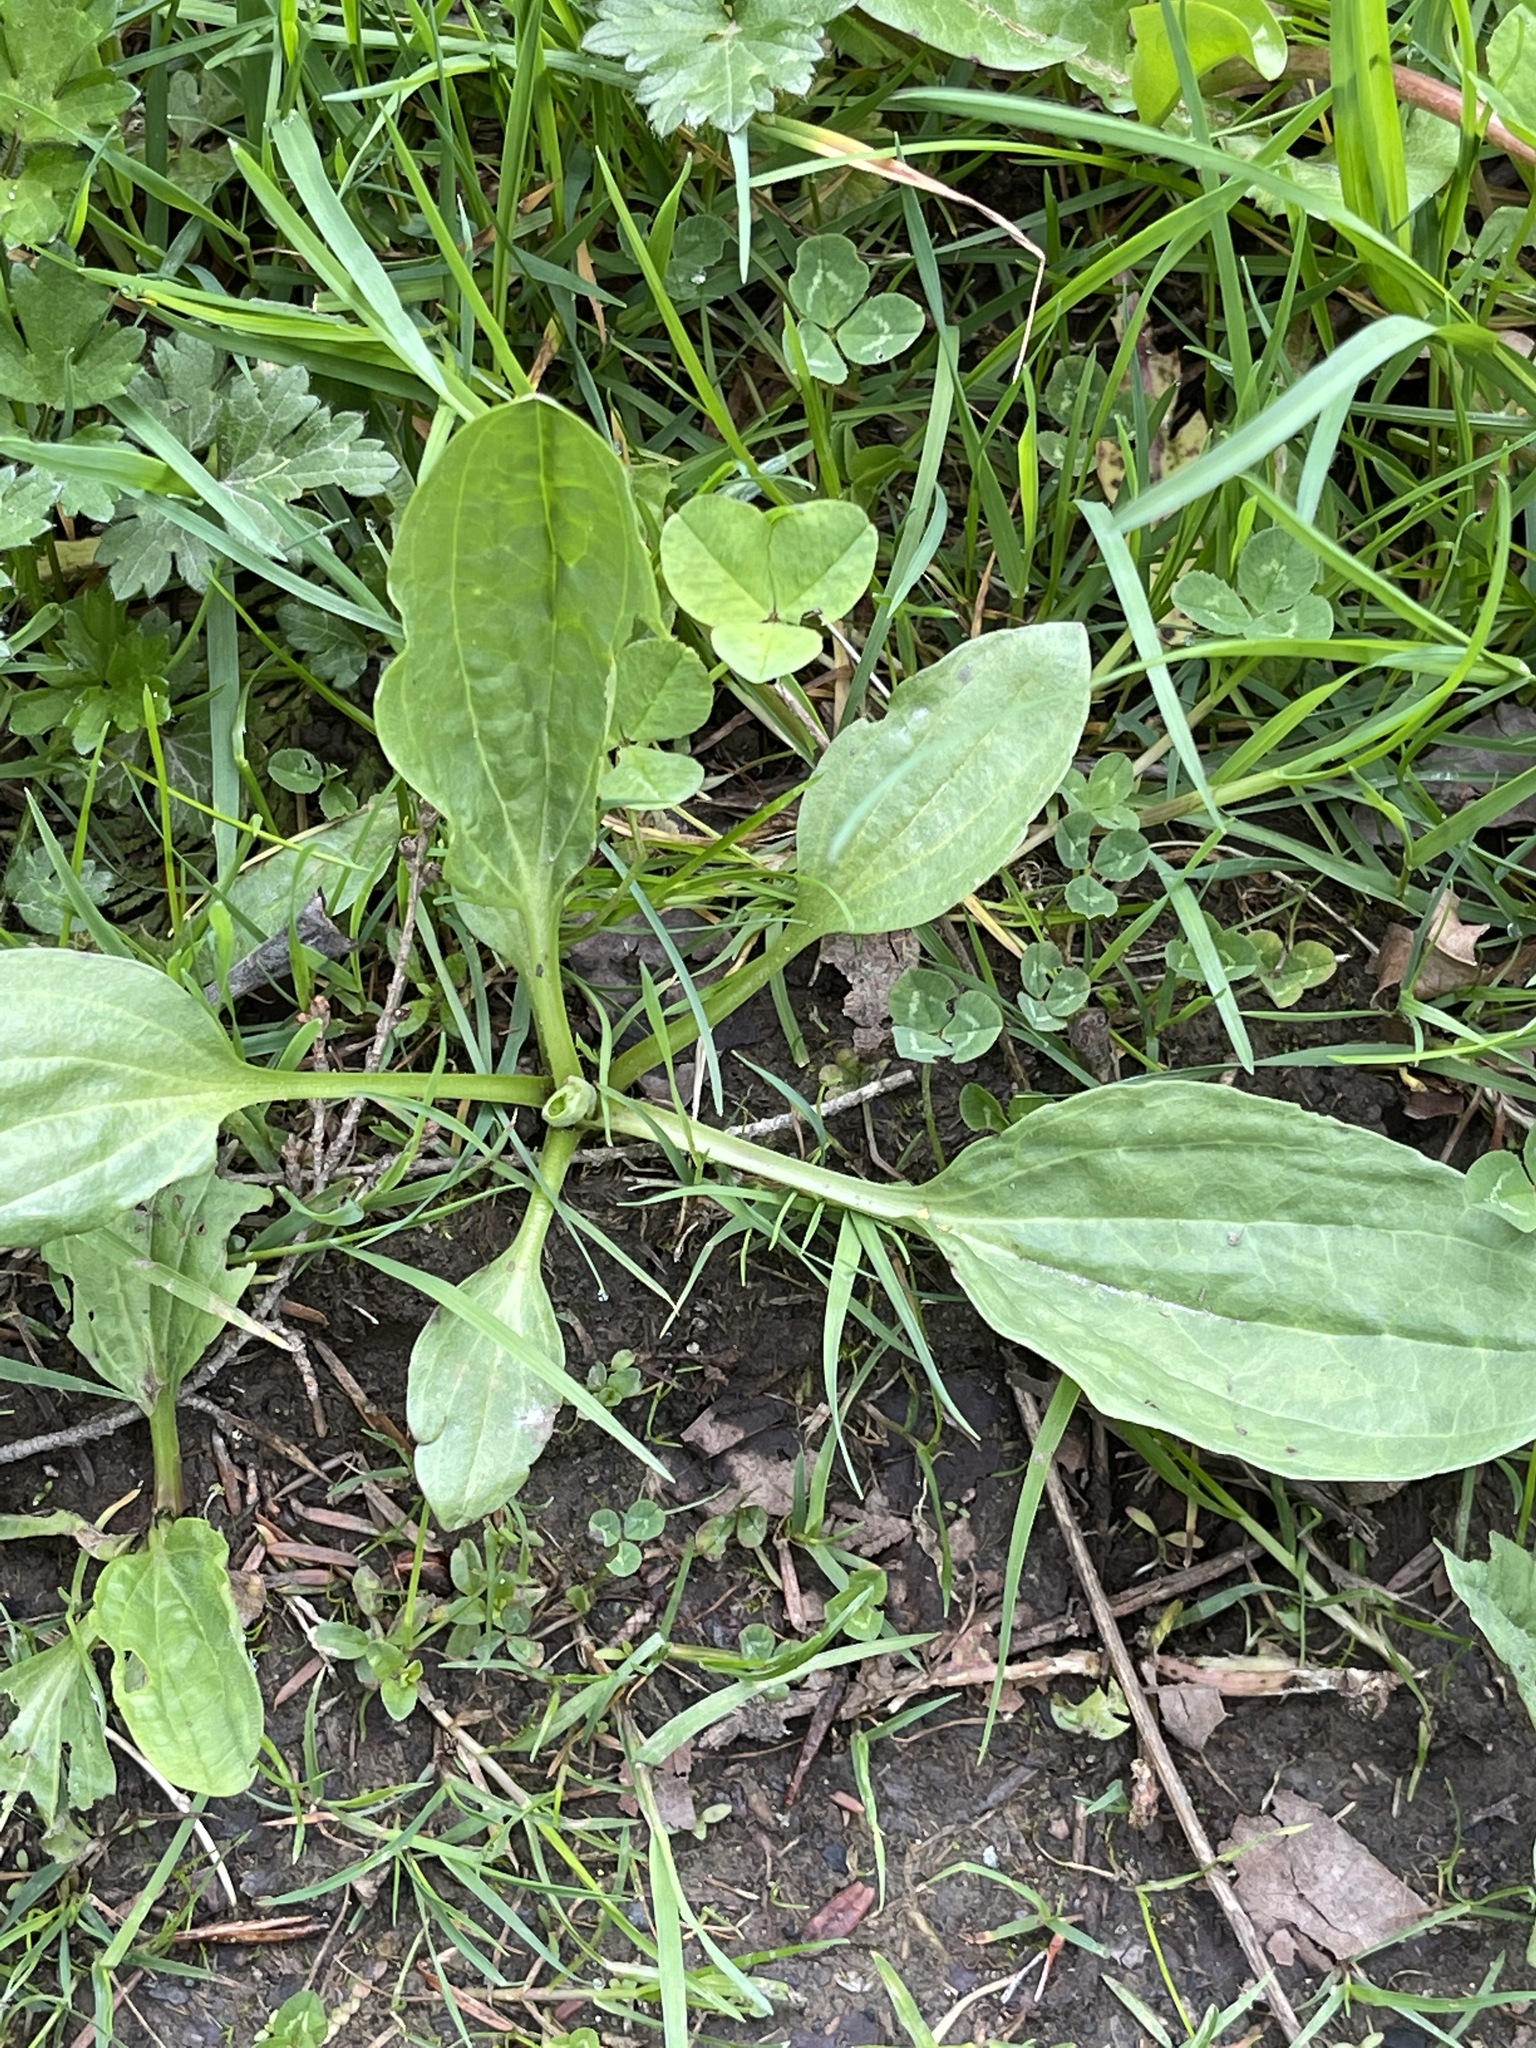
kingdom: Plantae
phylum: Tracheophyta
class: Magnoliopsida
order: Lamiales
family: Plantaginaceae
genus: Plantago
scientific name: Plantago major
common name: Common plantain
